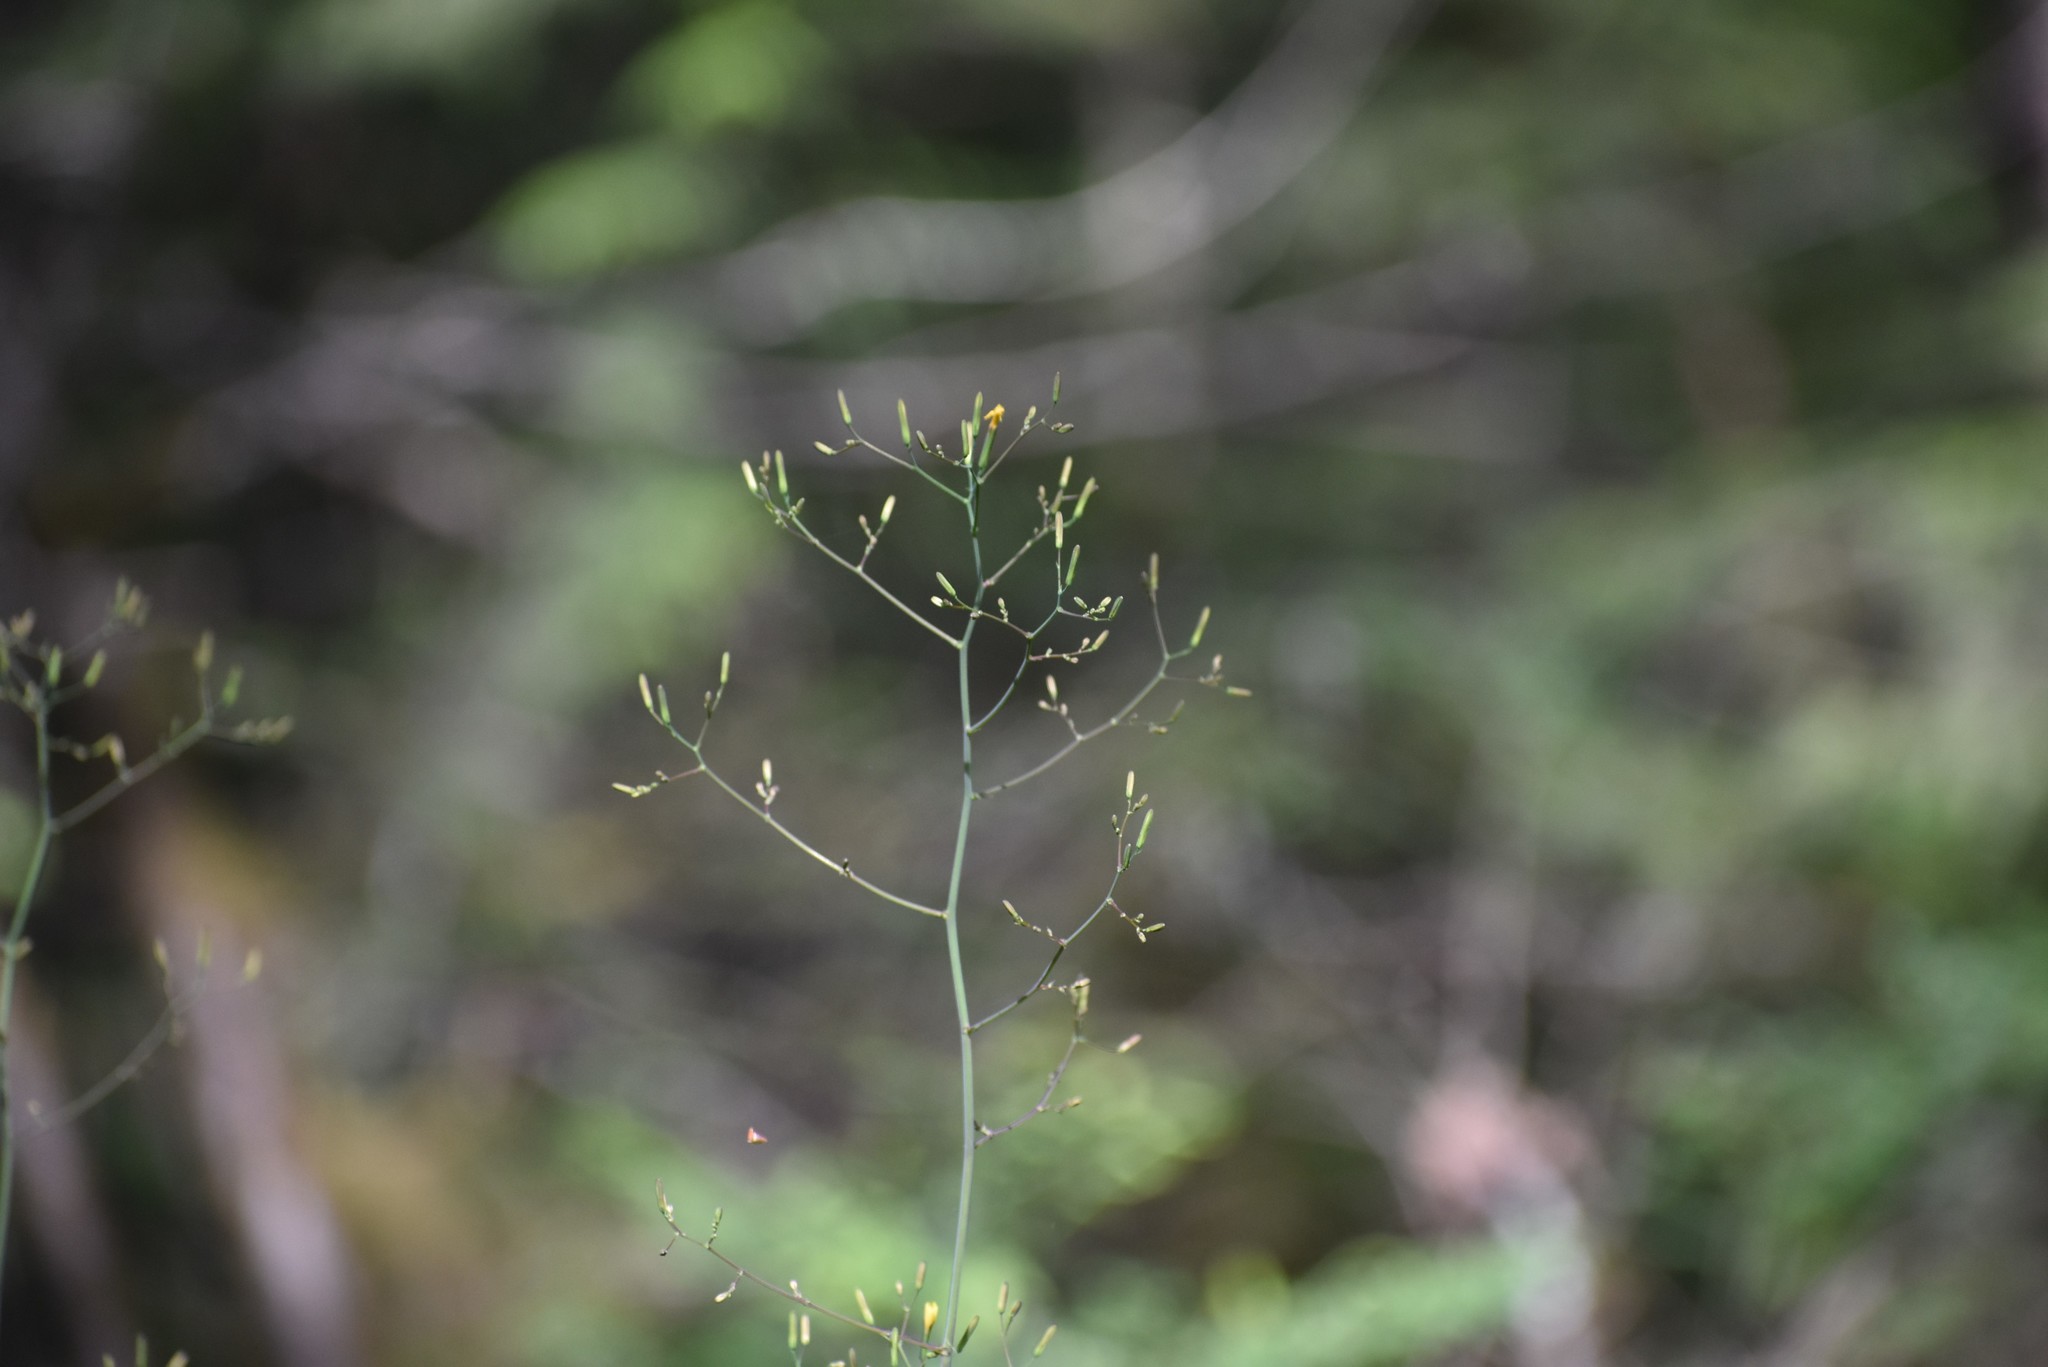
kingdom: Plantae
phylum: Tracheophyta
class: Magnoliopsida
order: Asterales
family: Asteraceae
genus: Mycelis
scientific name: Mycelis muralis
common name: Wall lettuce
